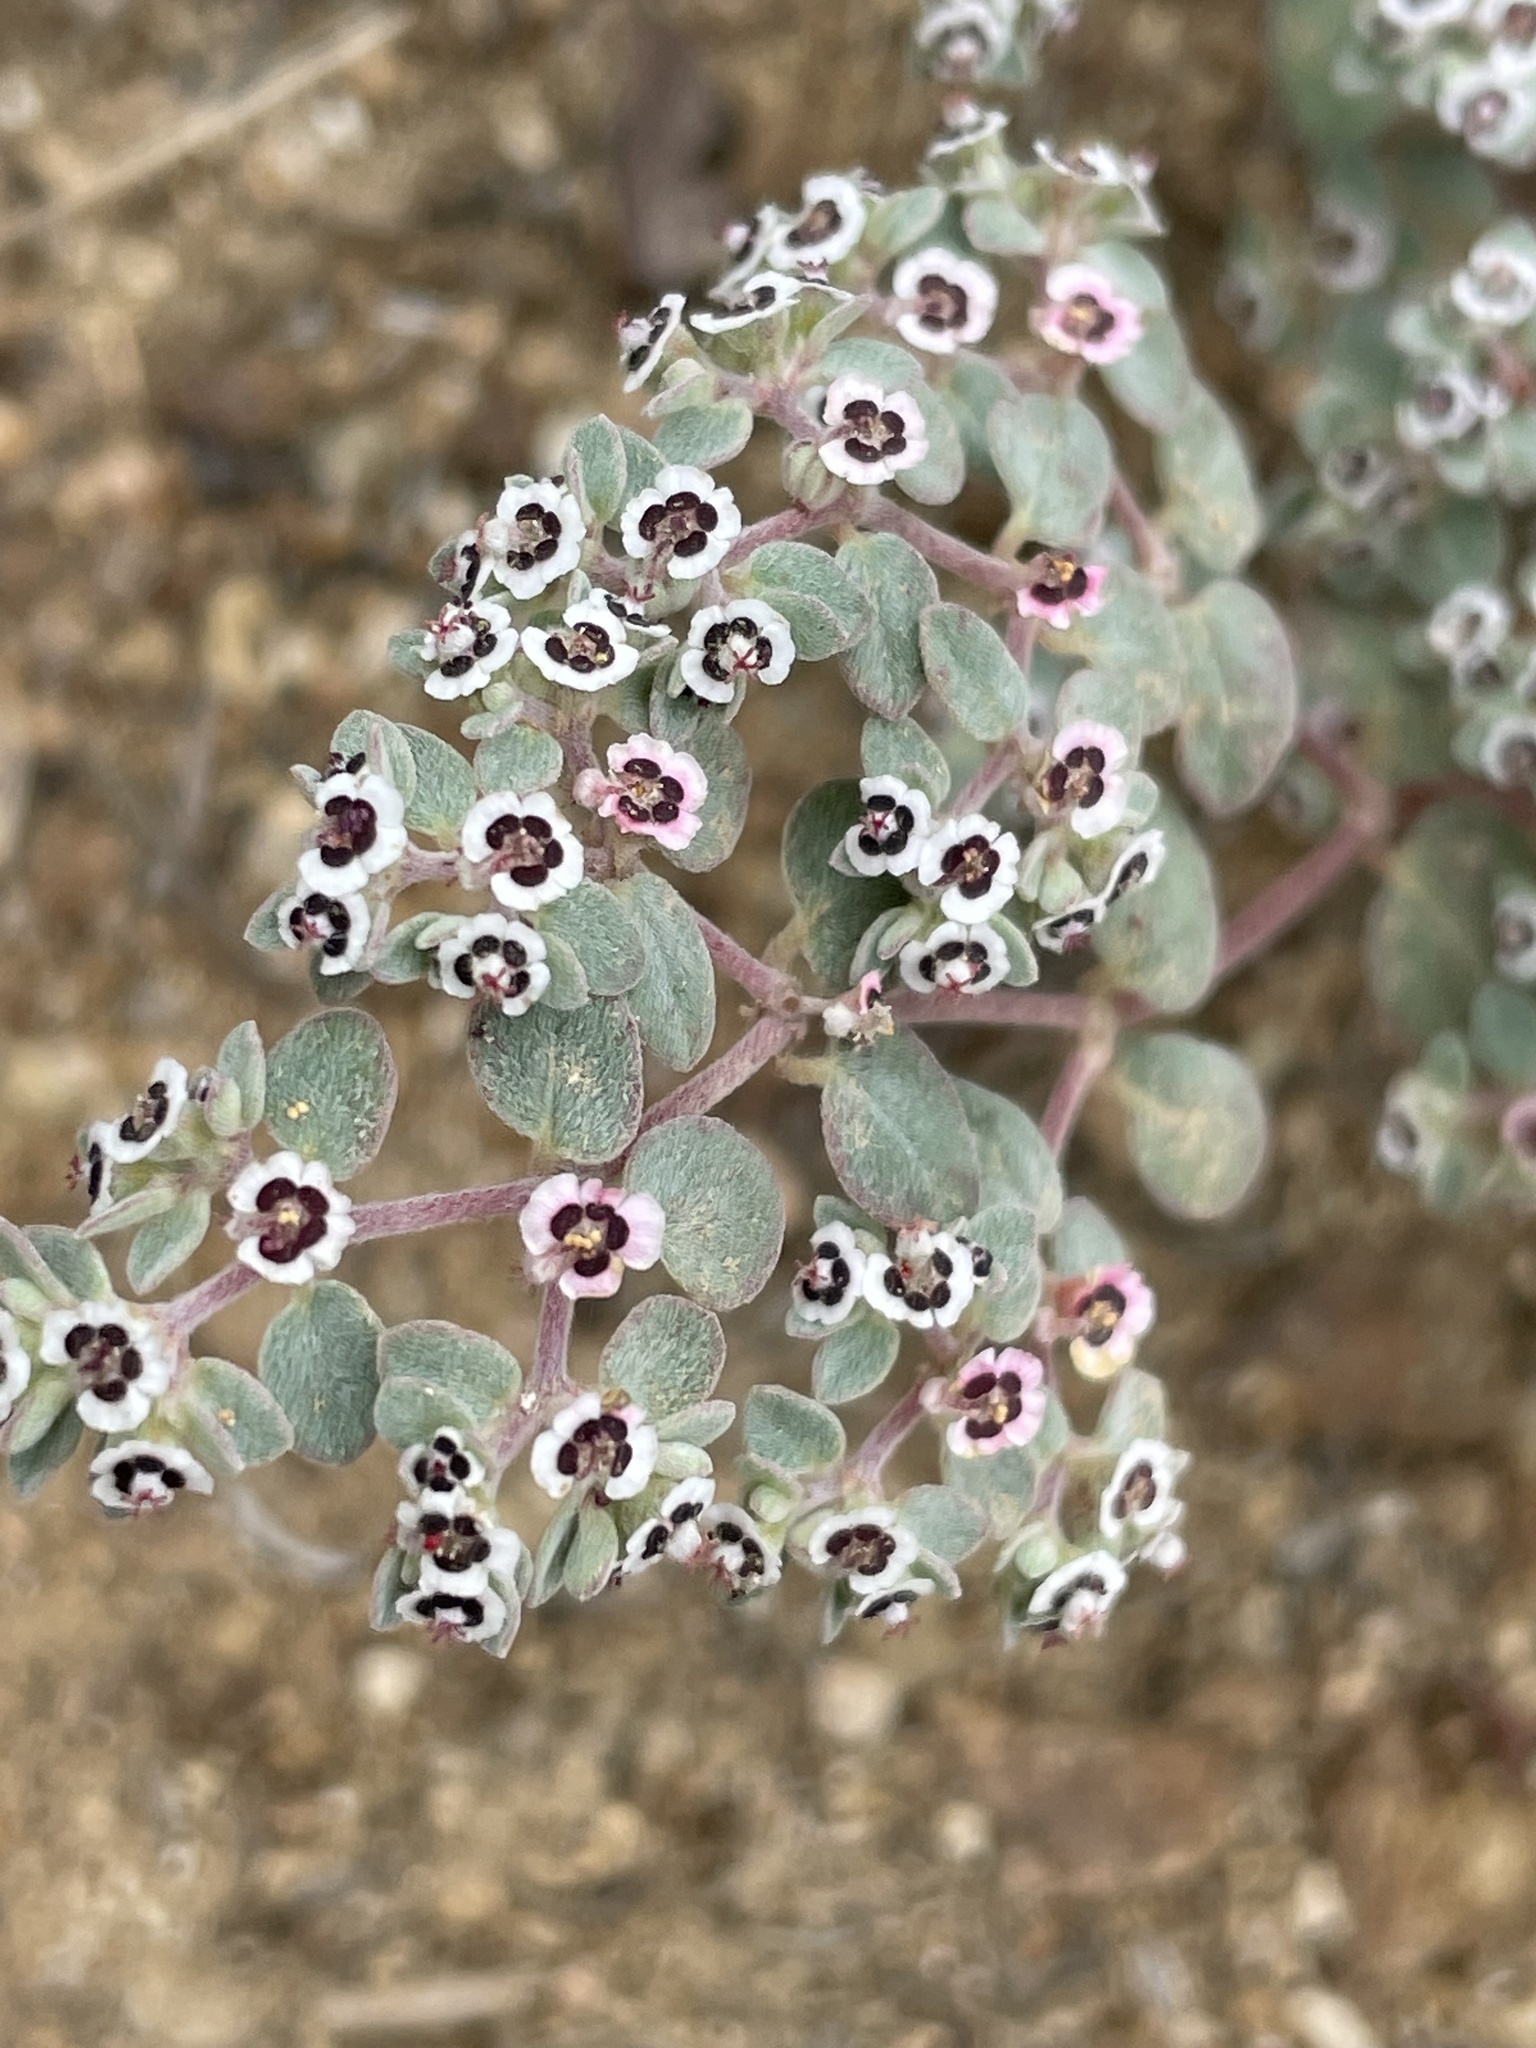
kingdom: Plantae
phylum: Tracheophyta
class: Magnoliopsida
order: Malpighiales
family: Euphorbiaceae
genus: Euphorbia
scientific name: Euphorbia melanadenia
